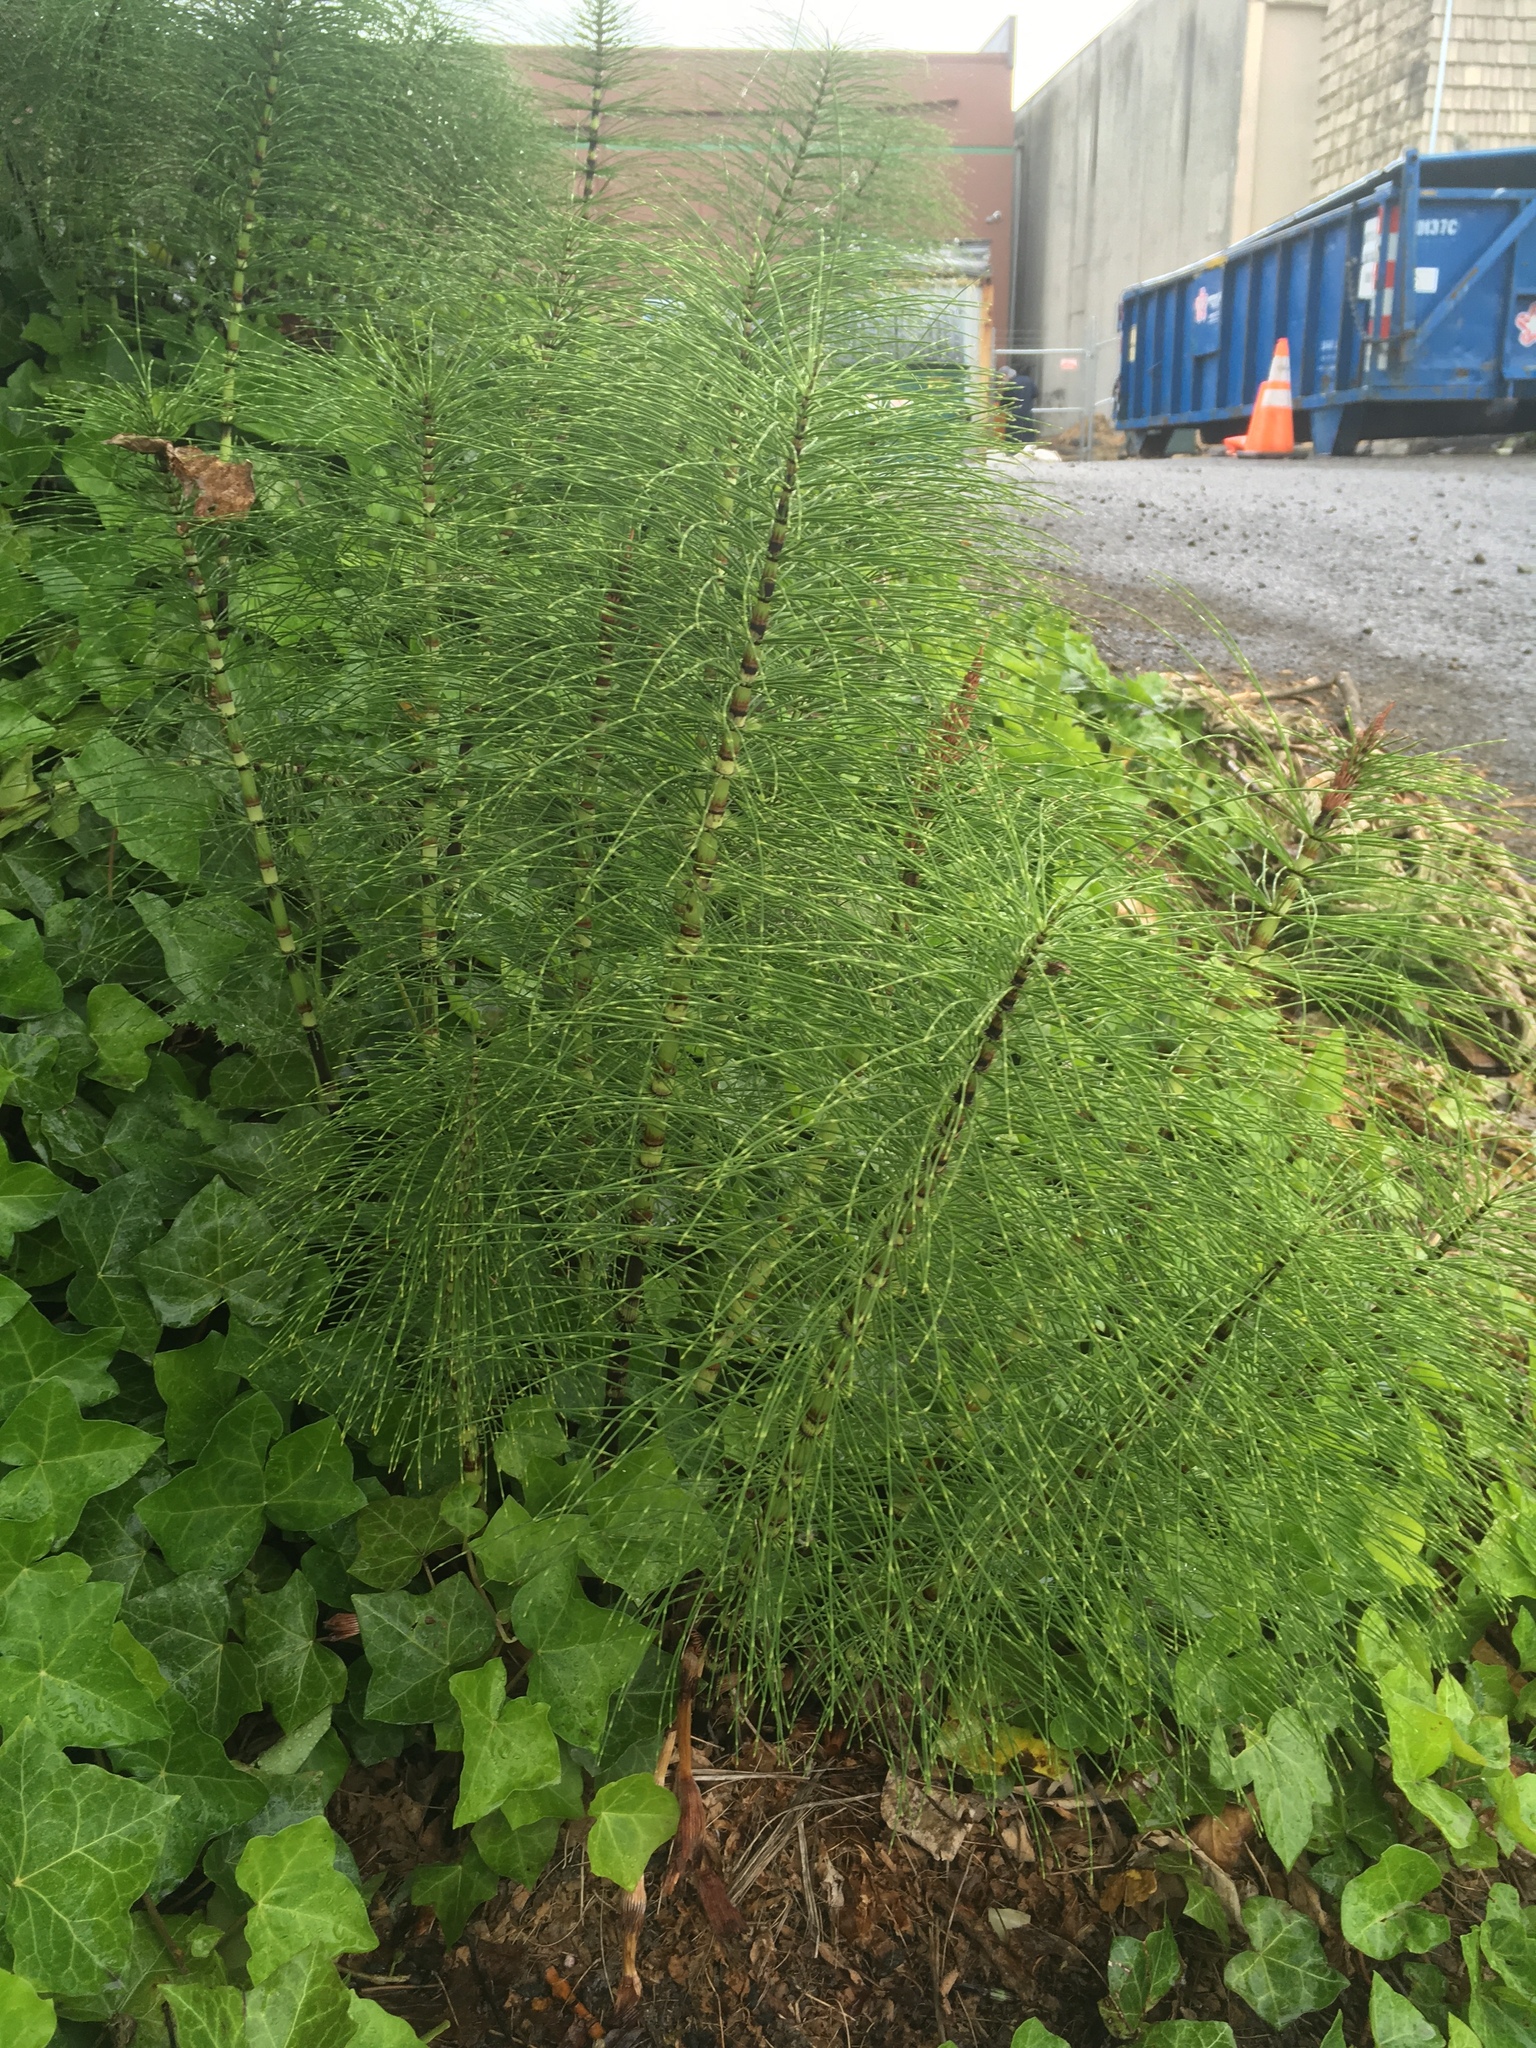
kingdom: Plantae
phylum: Tracheophyta
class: Polypodiopsida
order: Equisetales
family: Equisetaceae
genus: Equisetum
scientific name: Equisetum braunii
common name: Braun's horsetail
